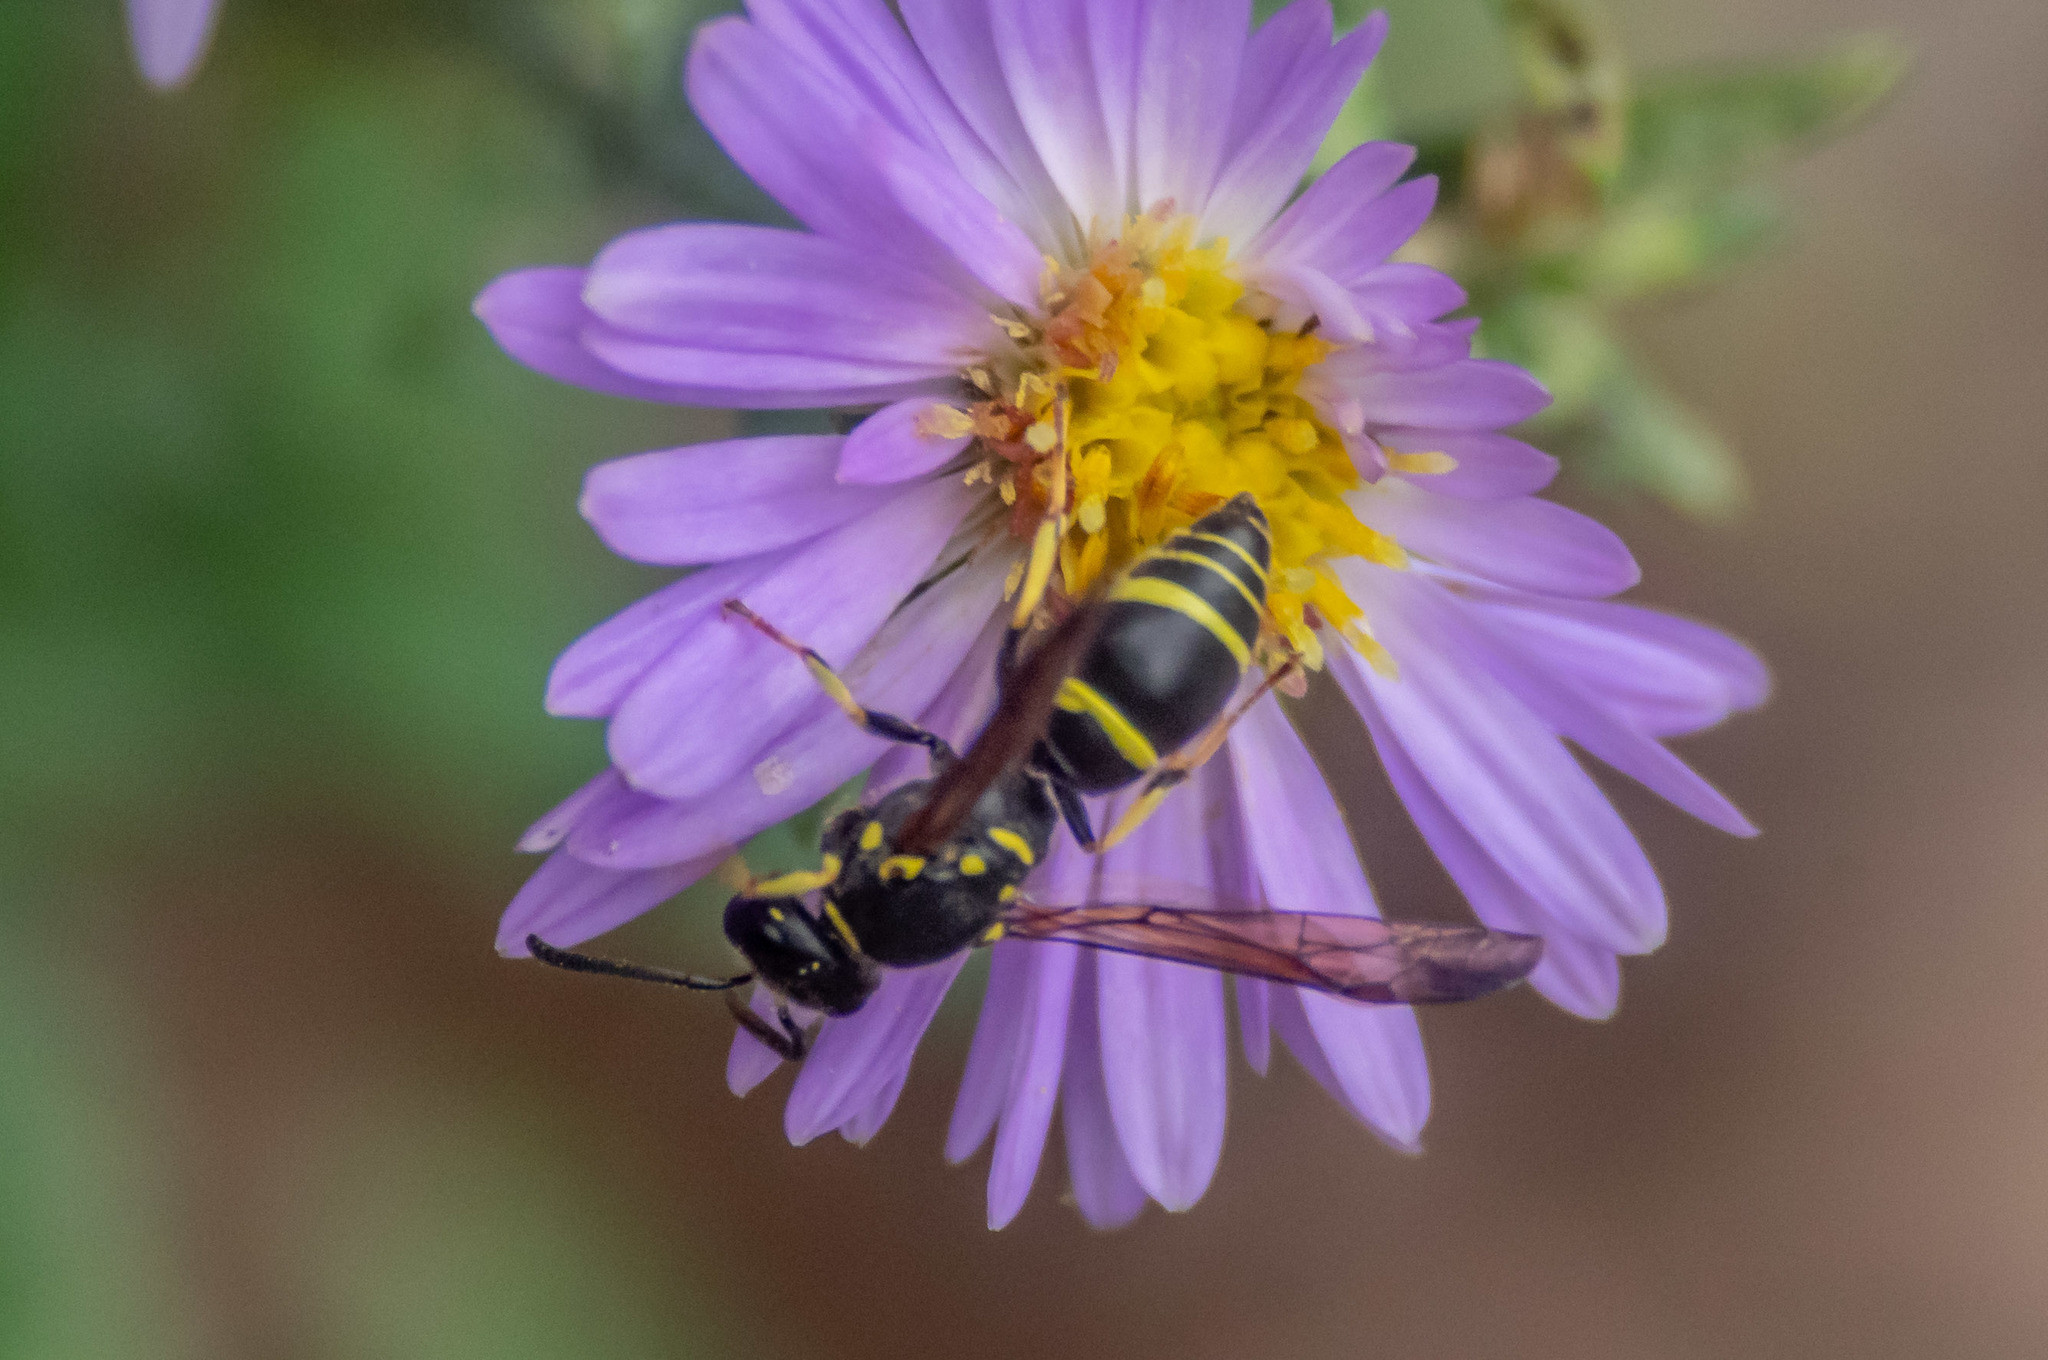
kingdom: Animalia
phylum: Arthropoda
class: Insecta
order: Hymenoptera
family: Vespidae
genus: Ancistrocerus
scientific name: Ancistrocerus adiabatus
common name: Bramble mason wasp
